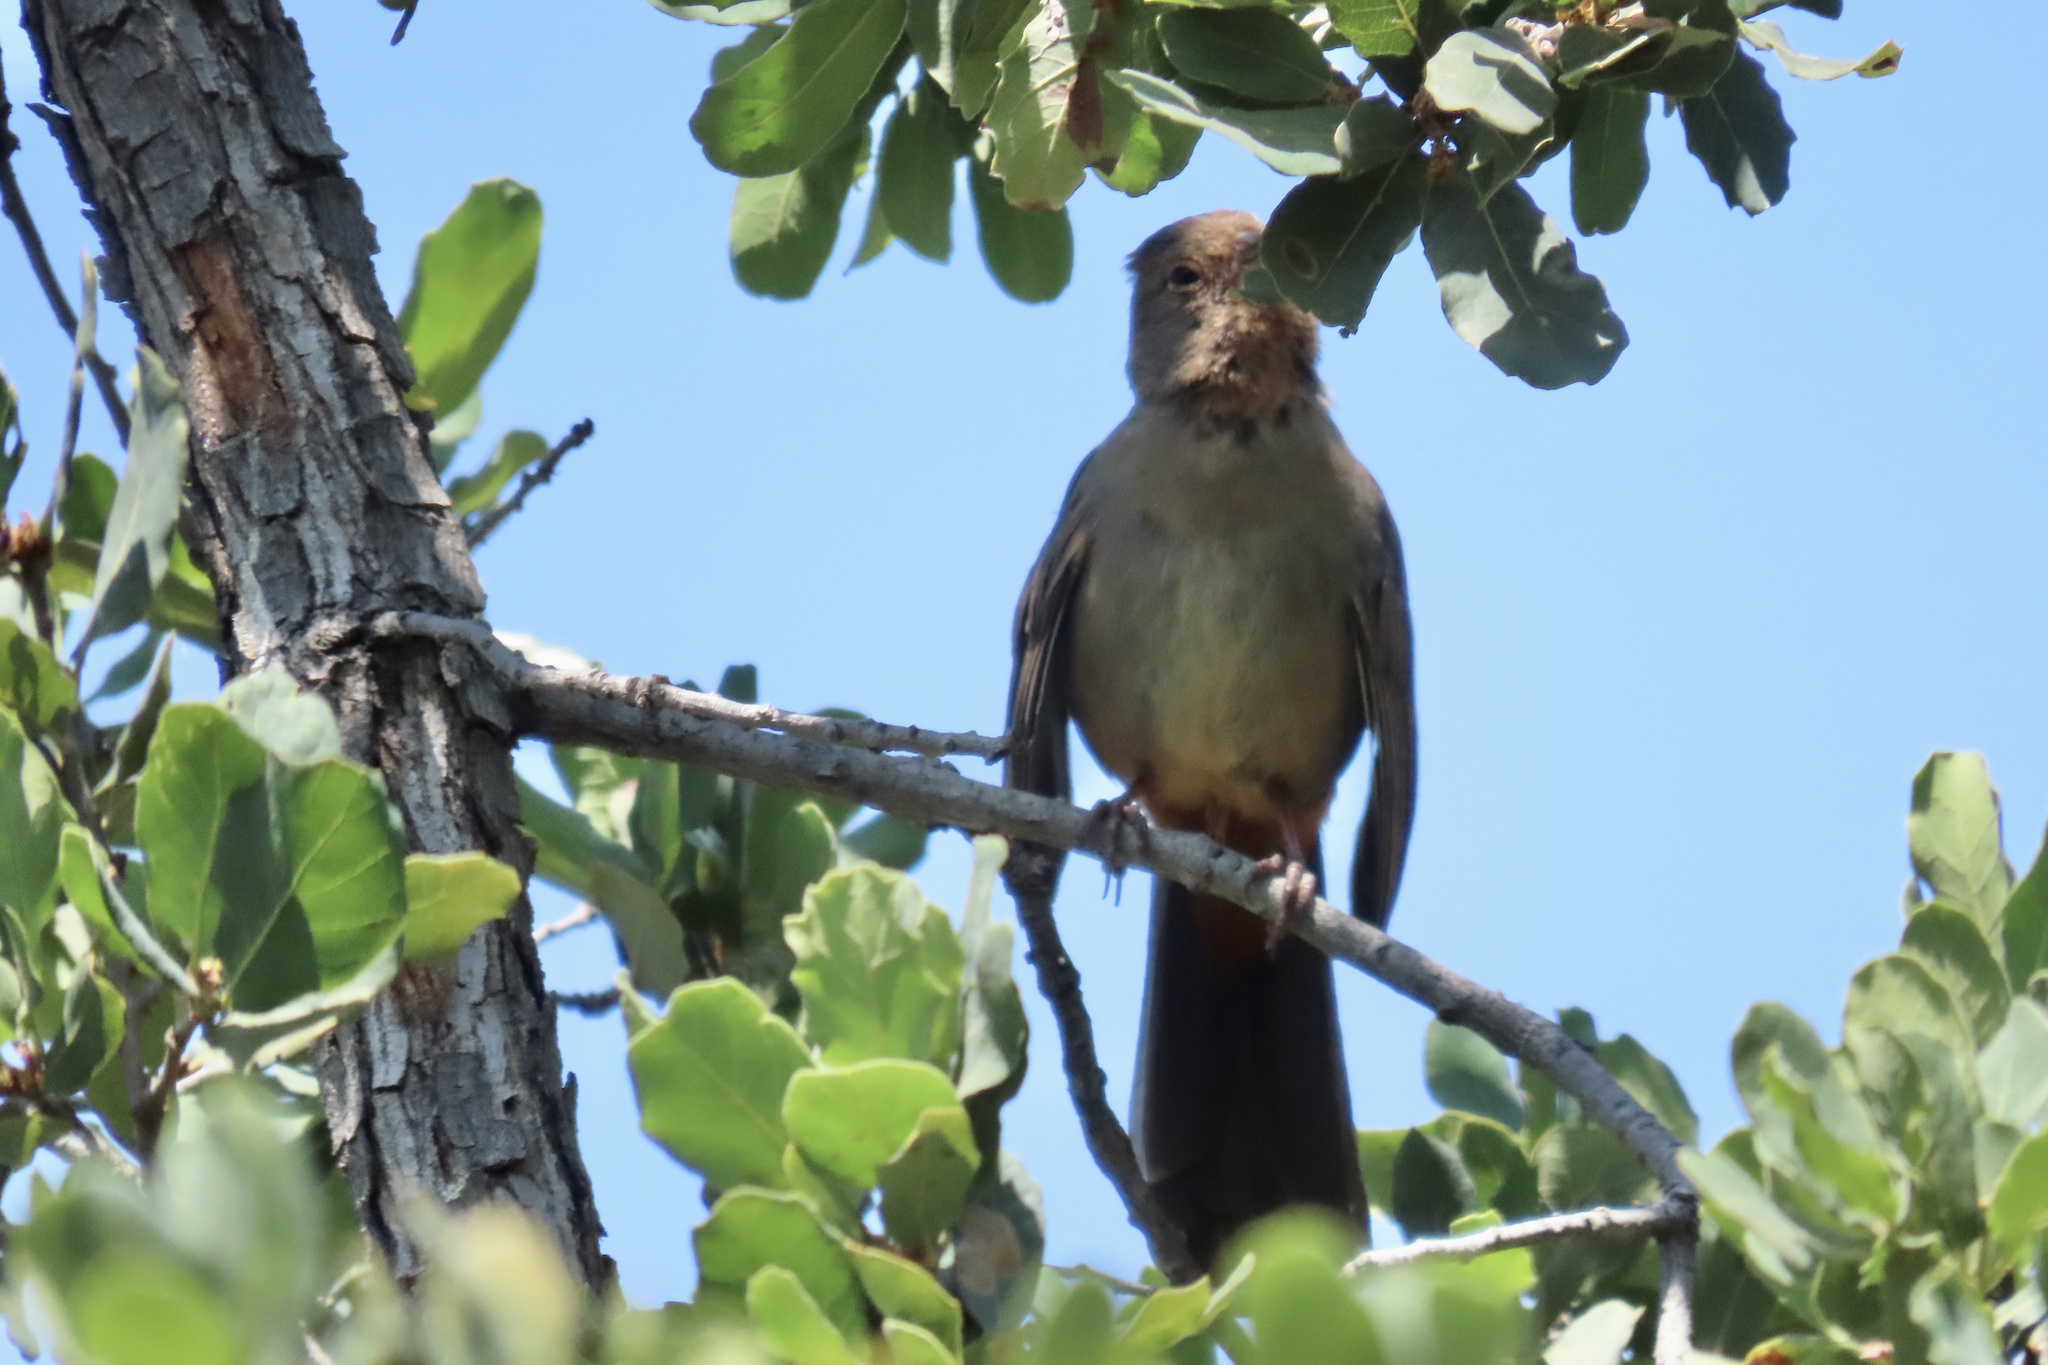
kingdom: Animalia
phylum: Chordata
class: Aves
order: Passeriformes
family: Passerellidae
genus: Melozone
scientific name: Melozone crissalis
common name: California towhee
